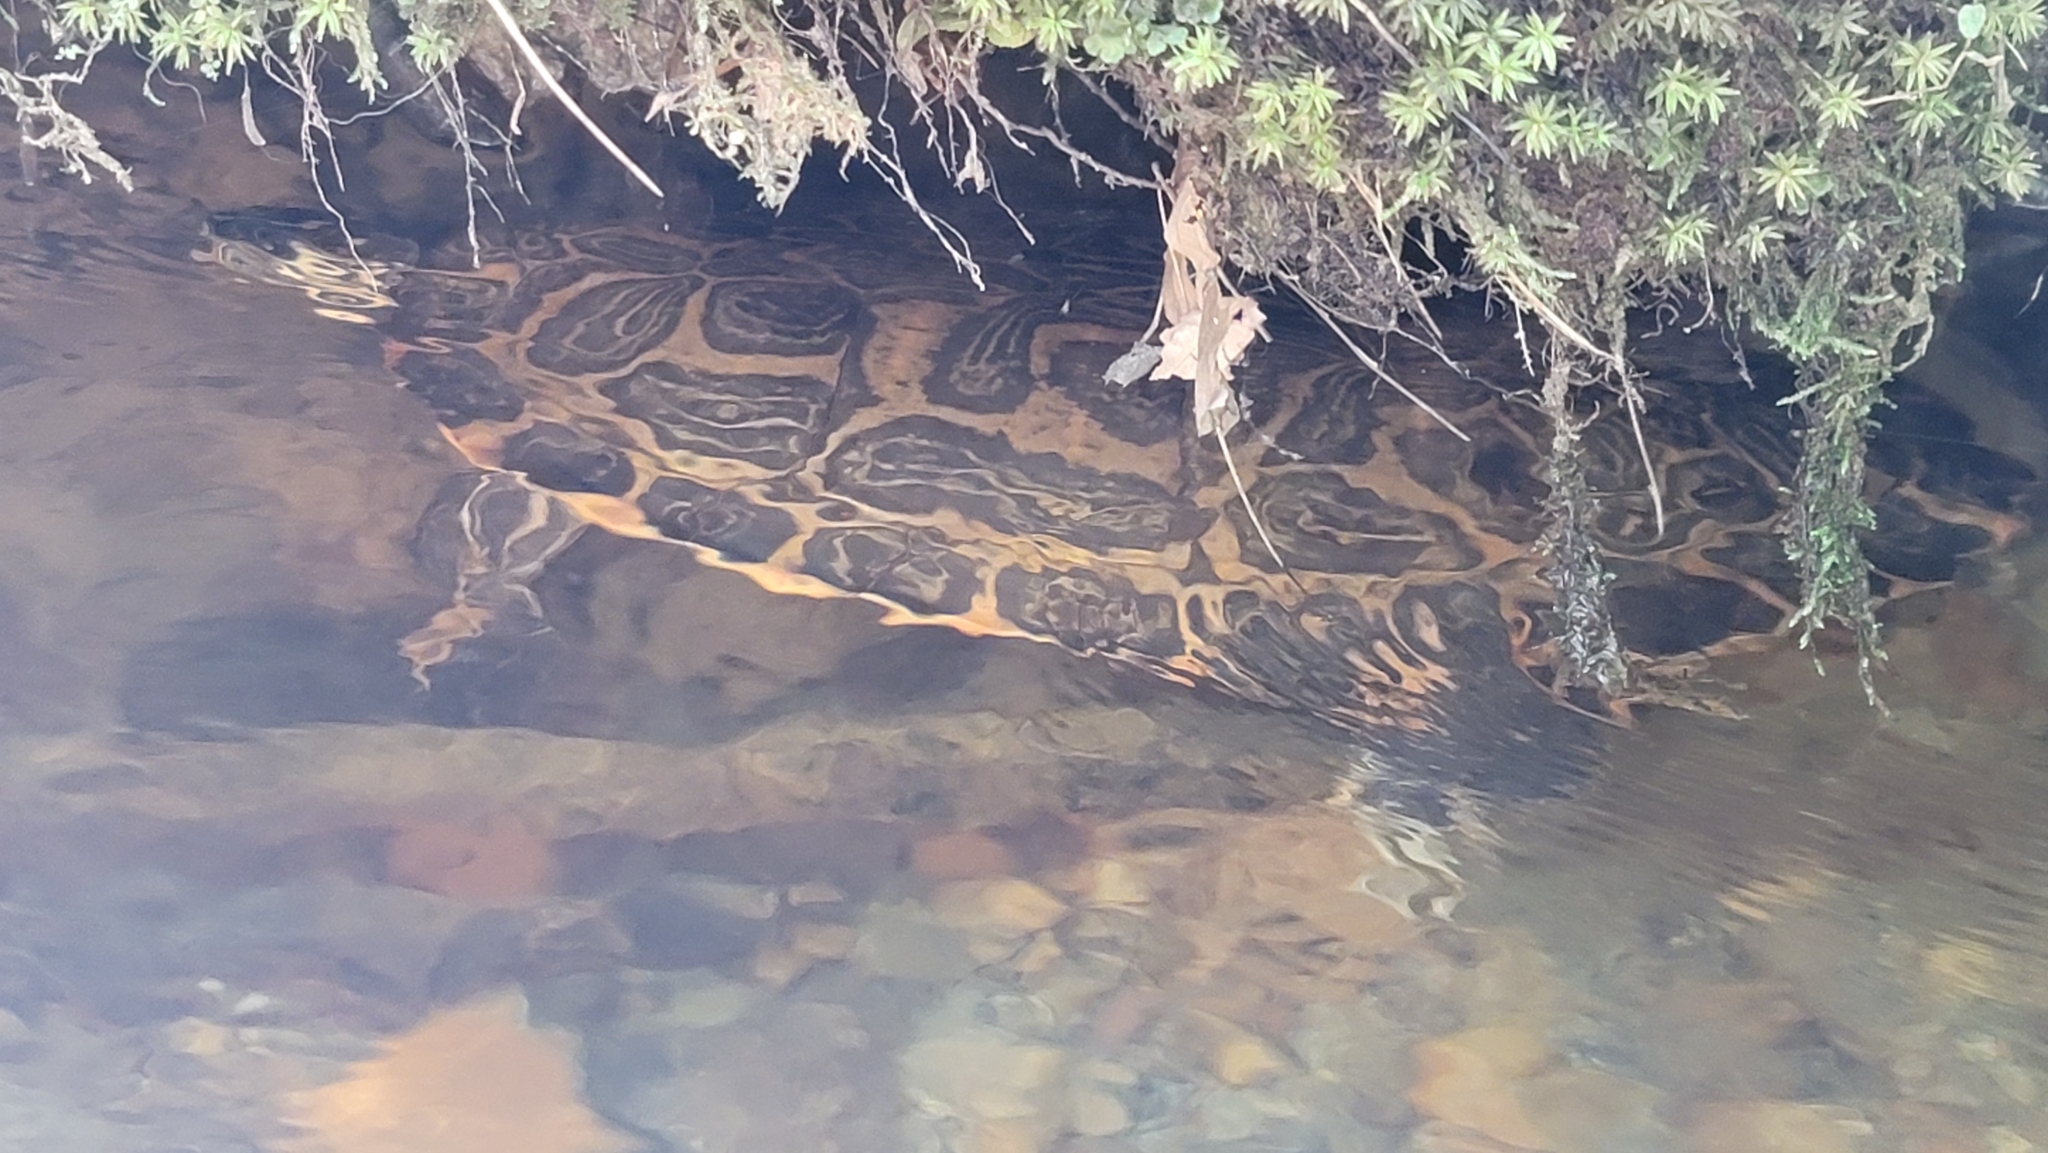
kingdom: Animalia
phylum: Chordata
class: Testudines
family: Emydidae
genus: Pseudemys
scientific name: Pseudemys concinna
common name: Eastern river cooter
